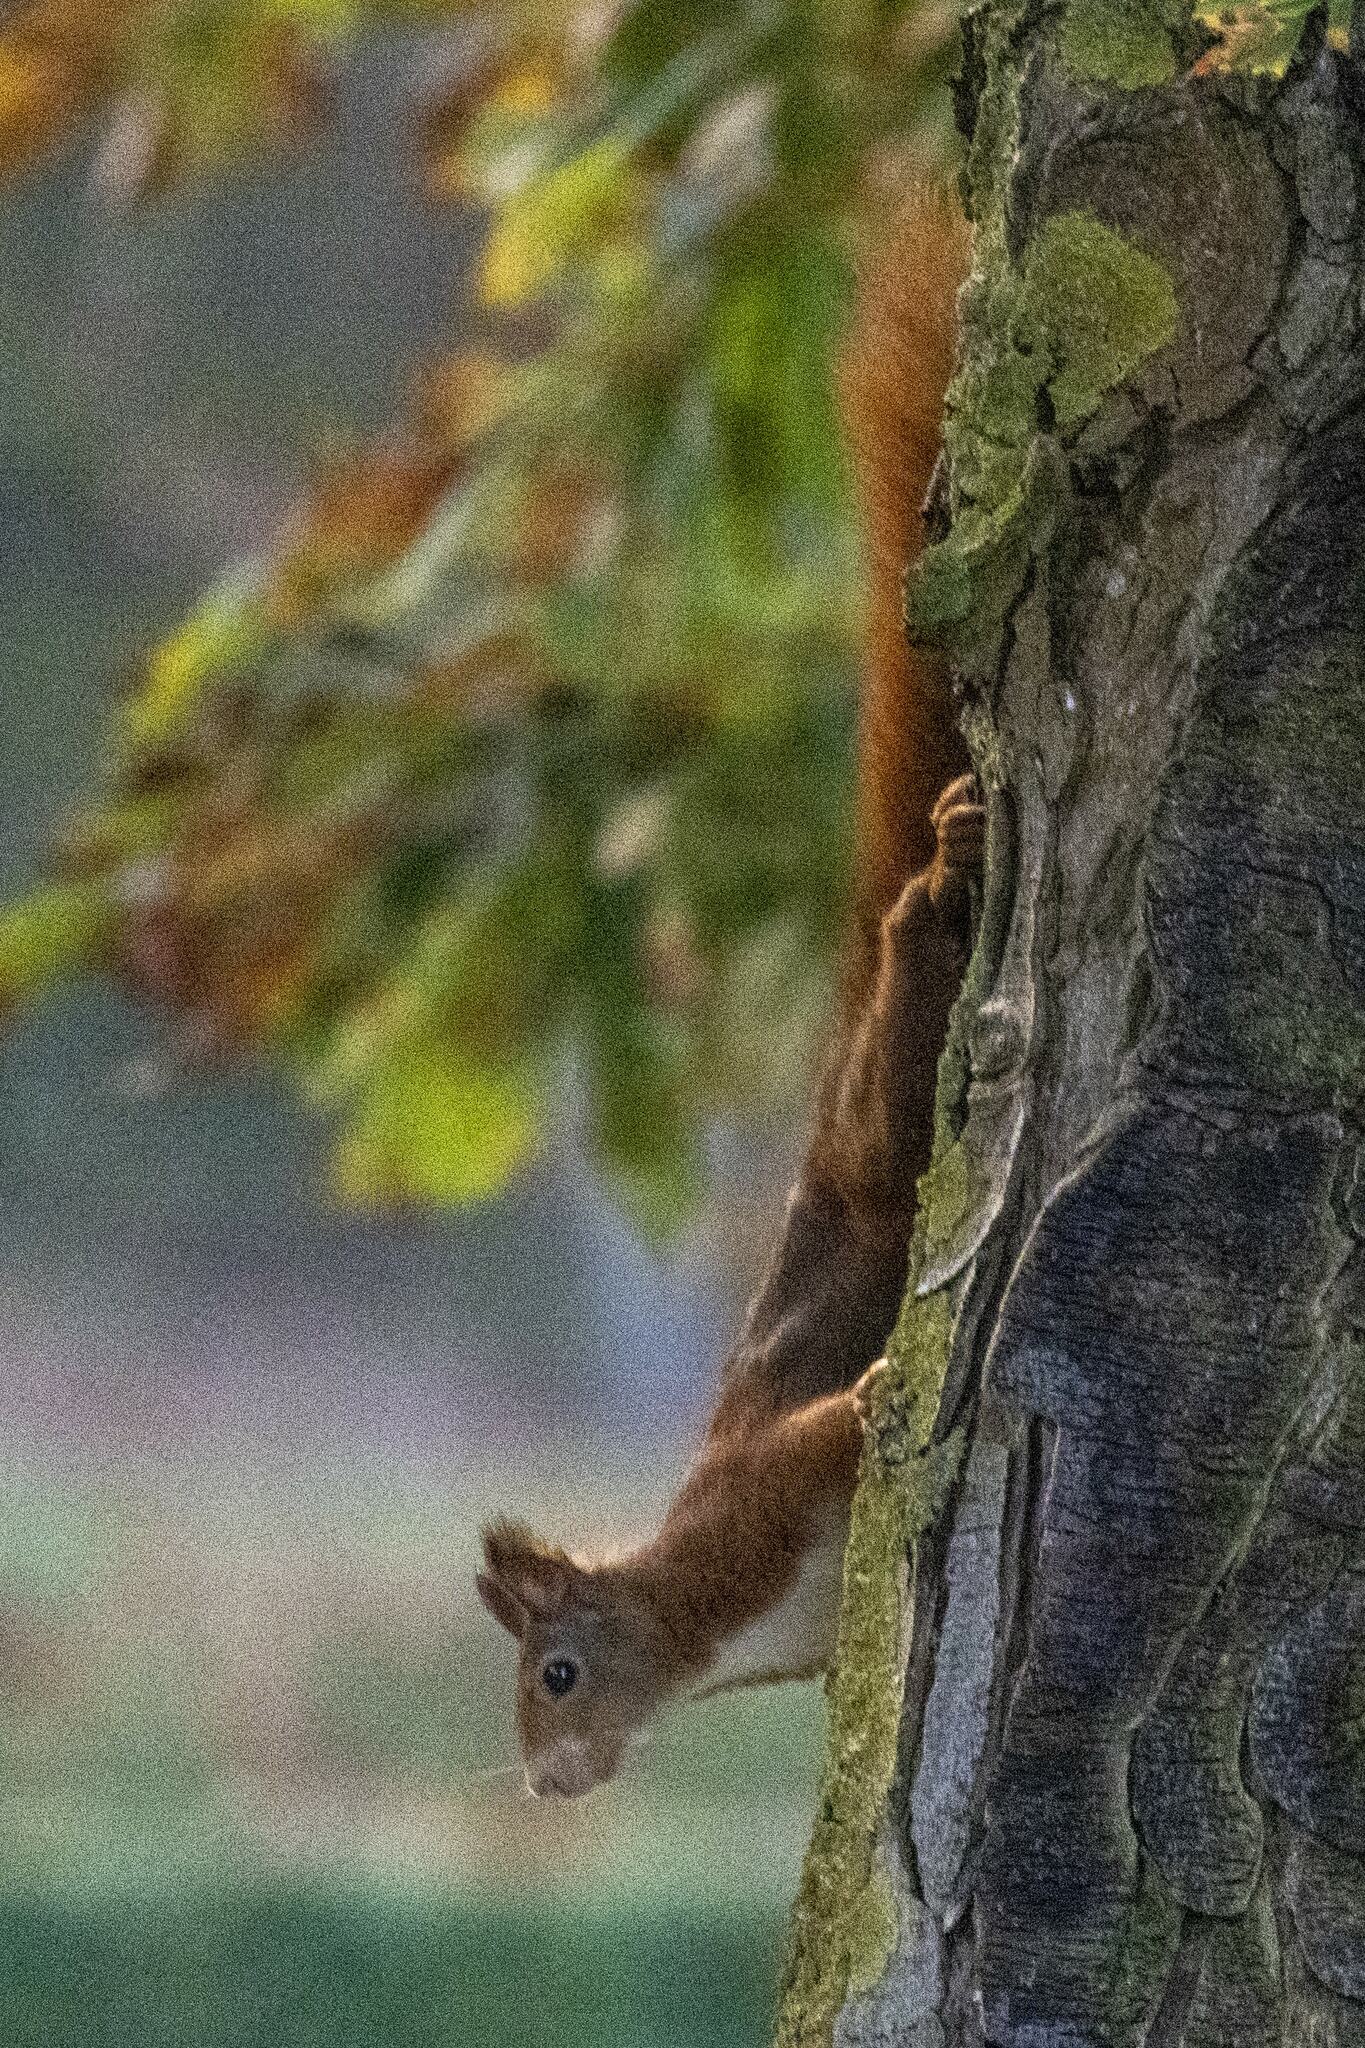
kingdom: Animalia
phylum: Chordata
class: Mammalia
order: Rodentia
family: Sciuridae
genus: Sciurus
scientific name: Sciurus vulgaris
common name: Eurasian red squirrel
